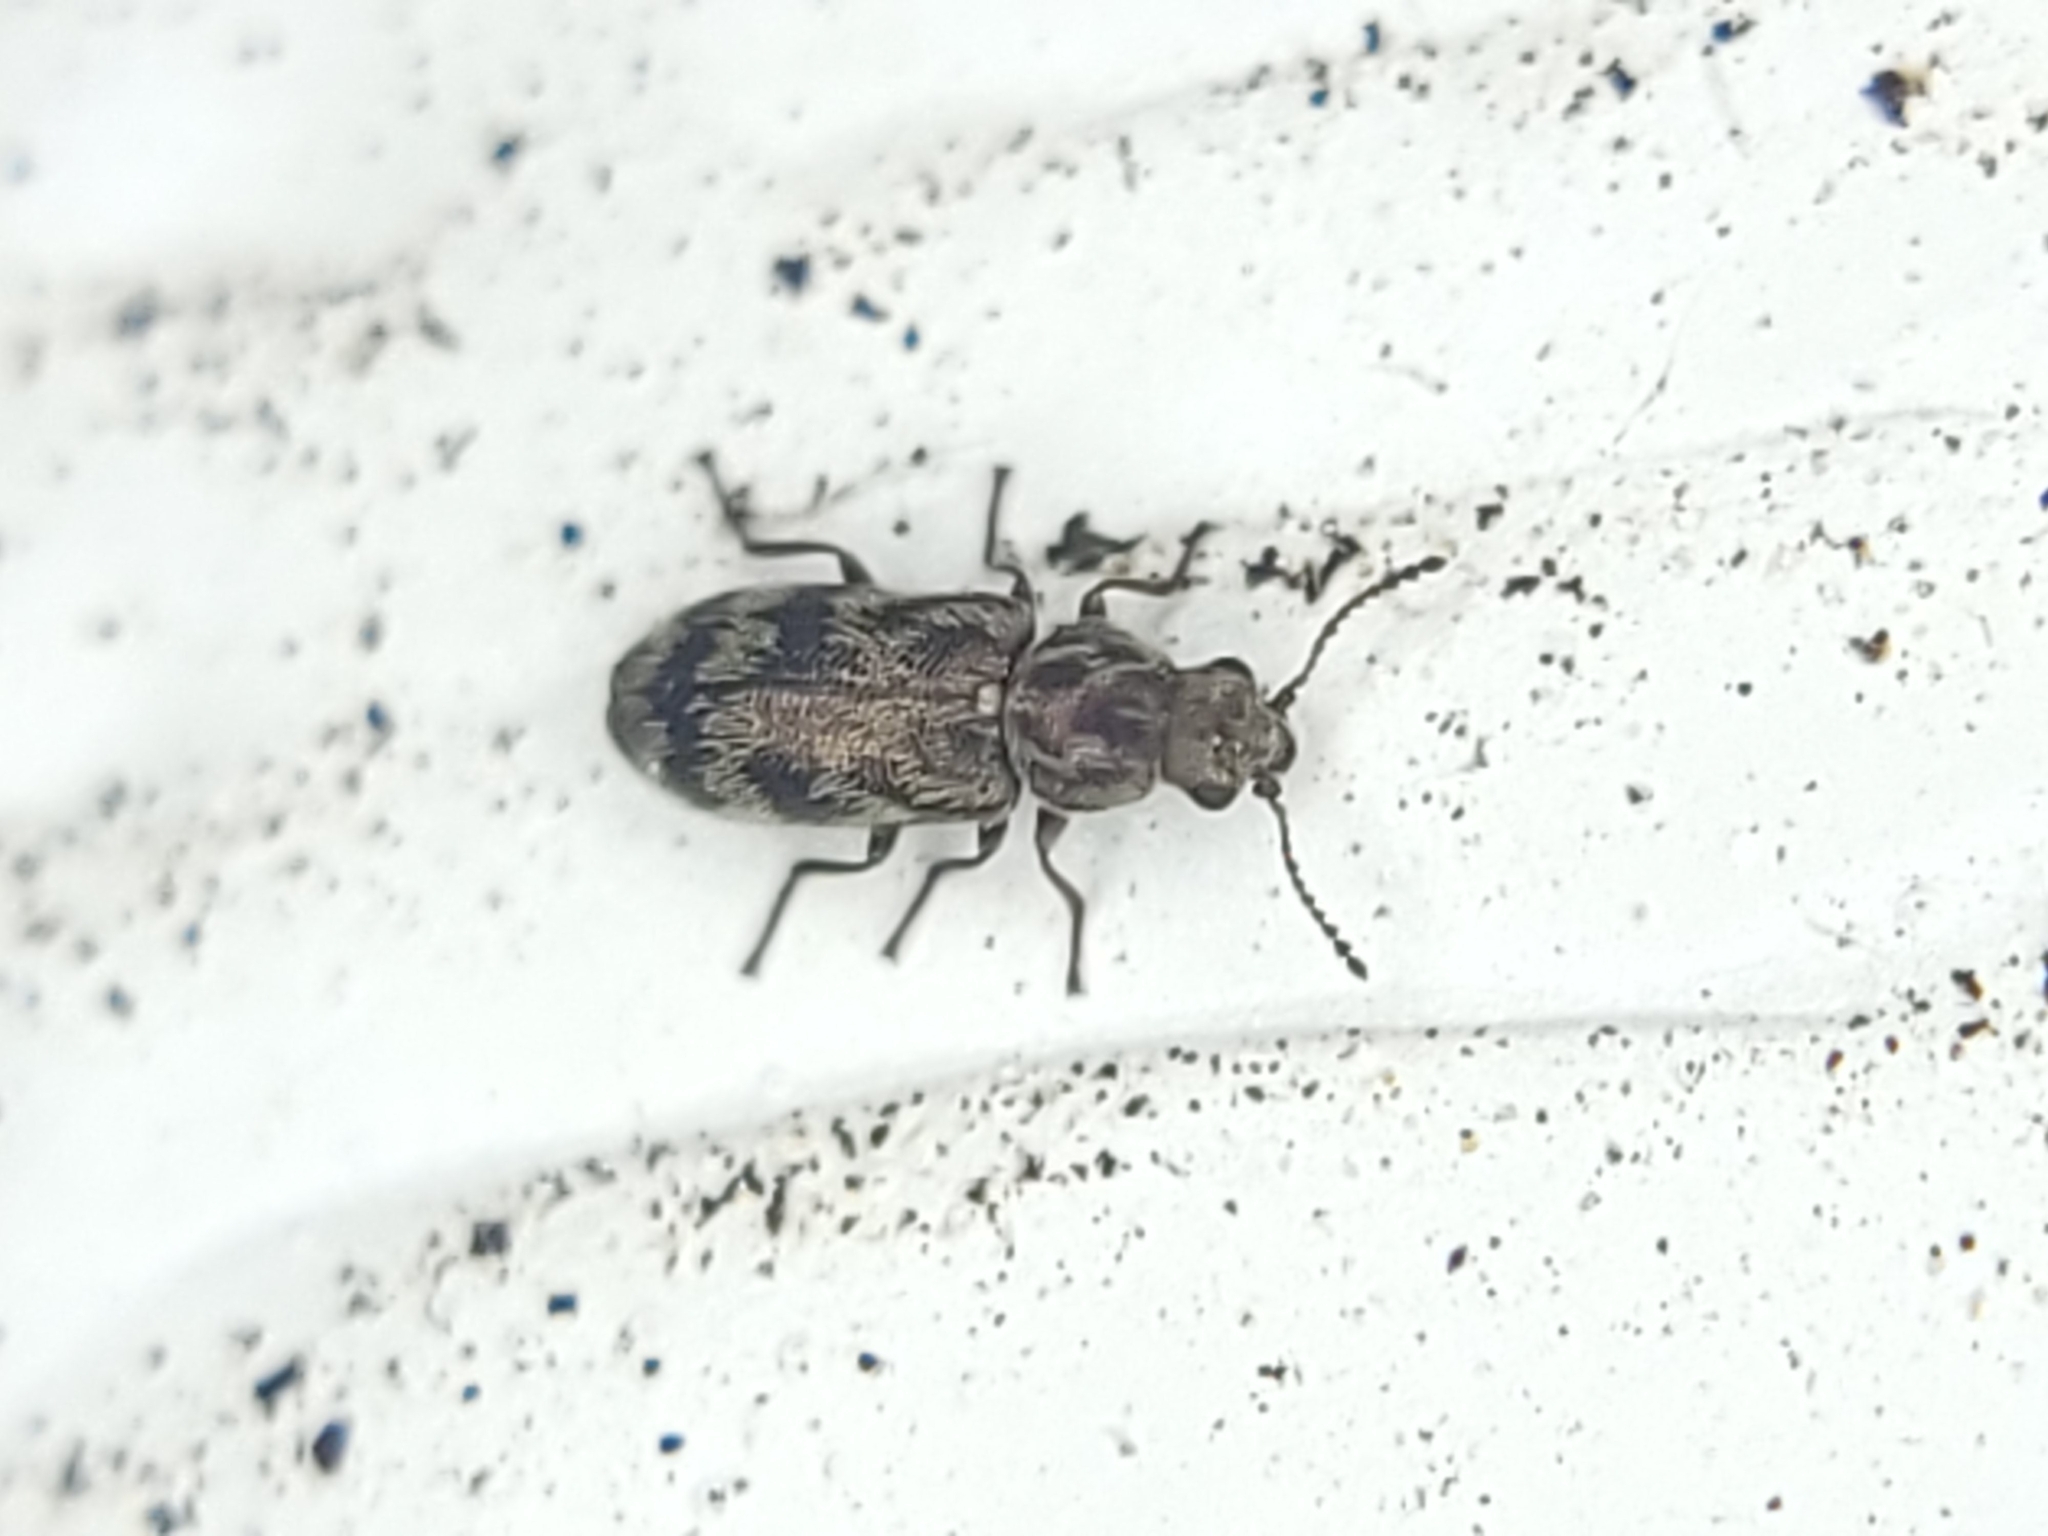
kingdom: Animalia
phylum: Arthropoda
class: Insecta
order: Coleoptera
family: Melyridae
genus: Listrus
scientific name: Listrus
